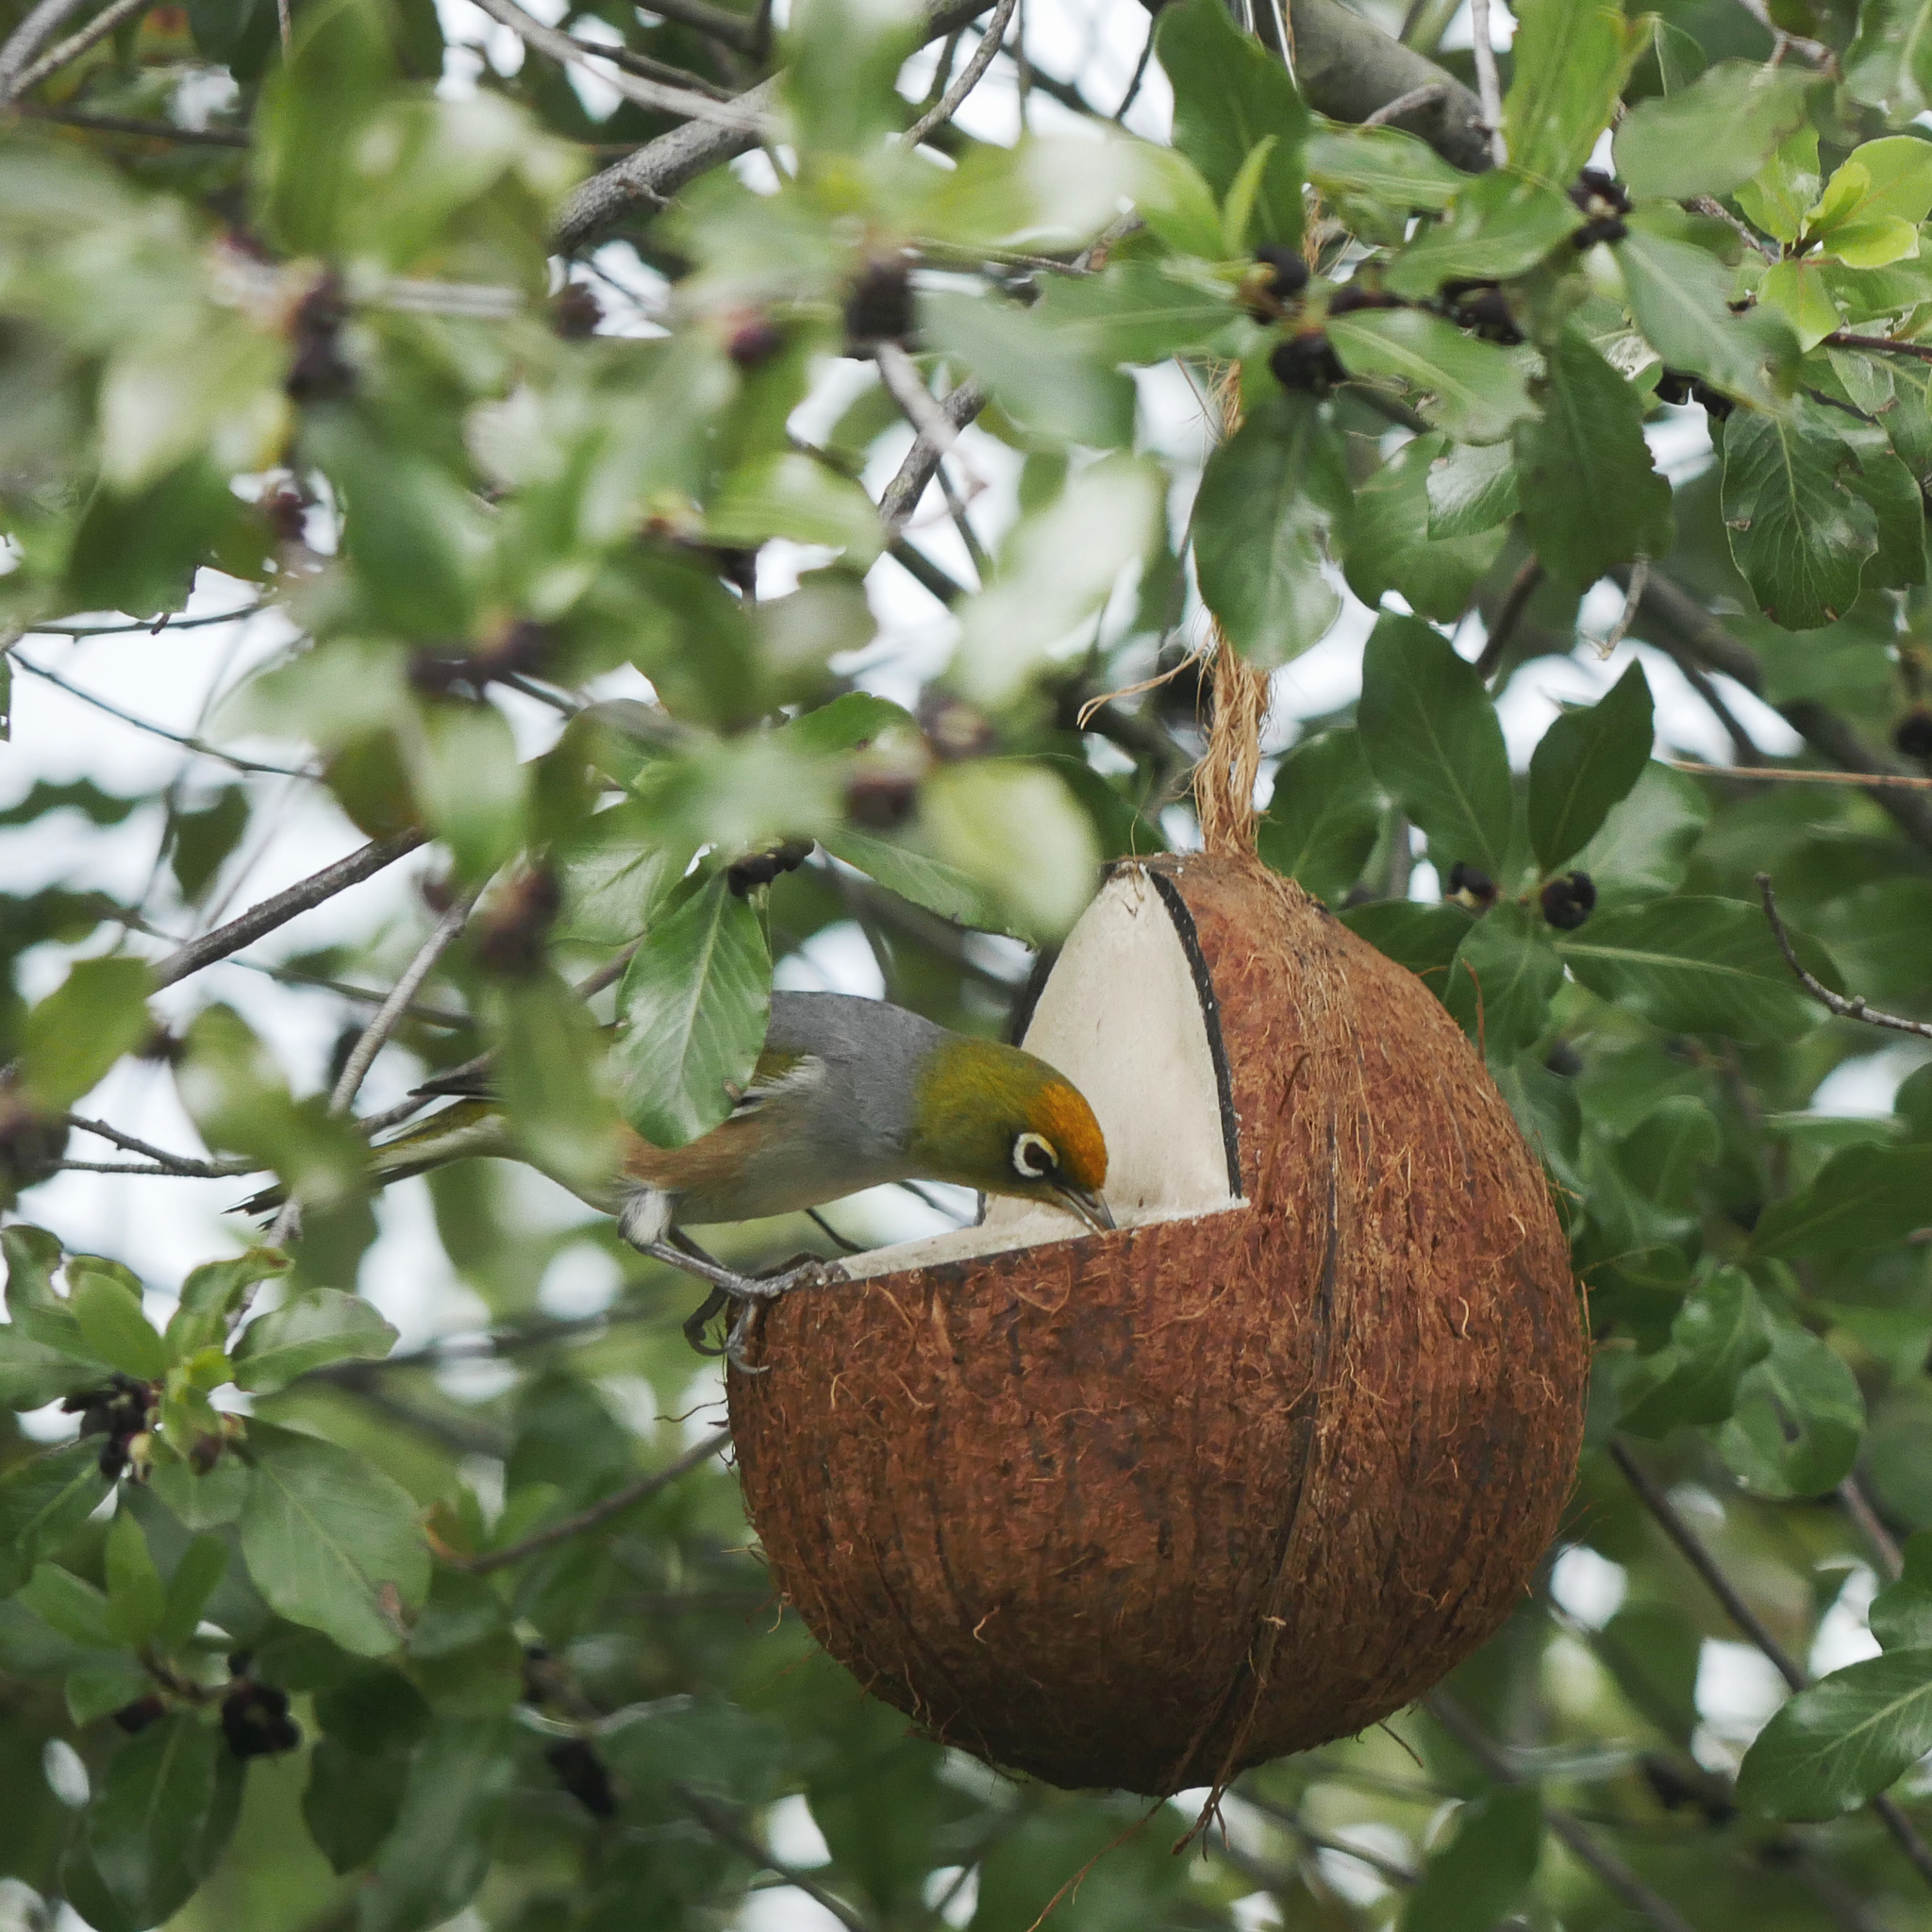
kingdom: Animalia
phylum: Chordata
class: Aves
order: Passeriformes
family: Zosteropidae
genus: Zosterops
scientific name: Zosterops lateralis
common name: Silvereye
